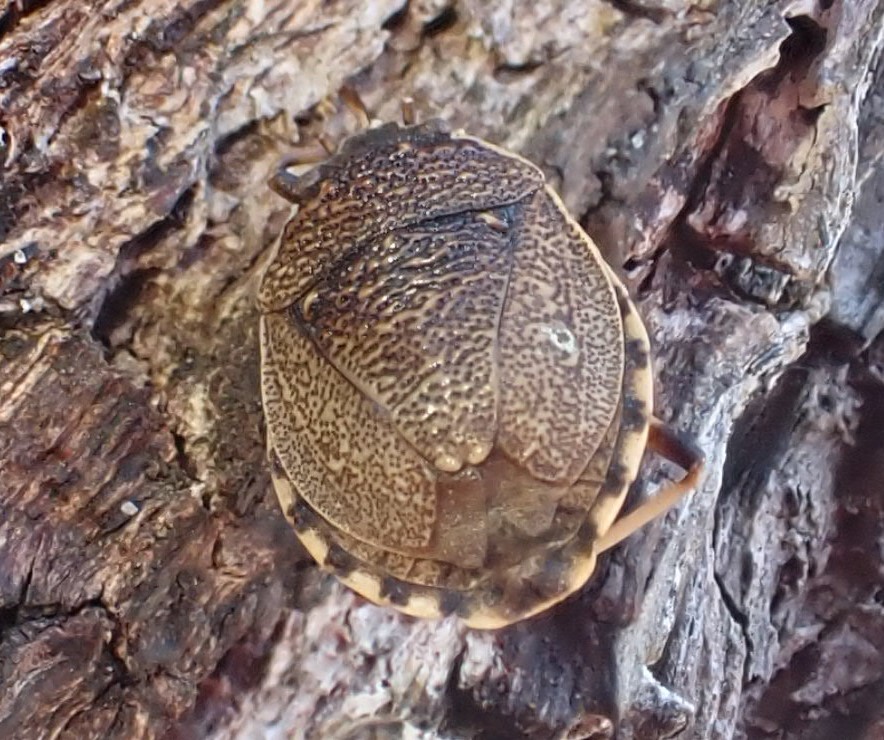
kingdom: Animalia
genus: Platycoris
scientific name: Platycoris
